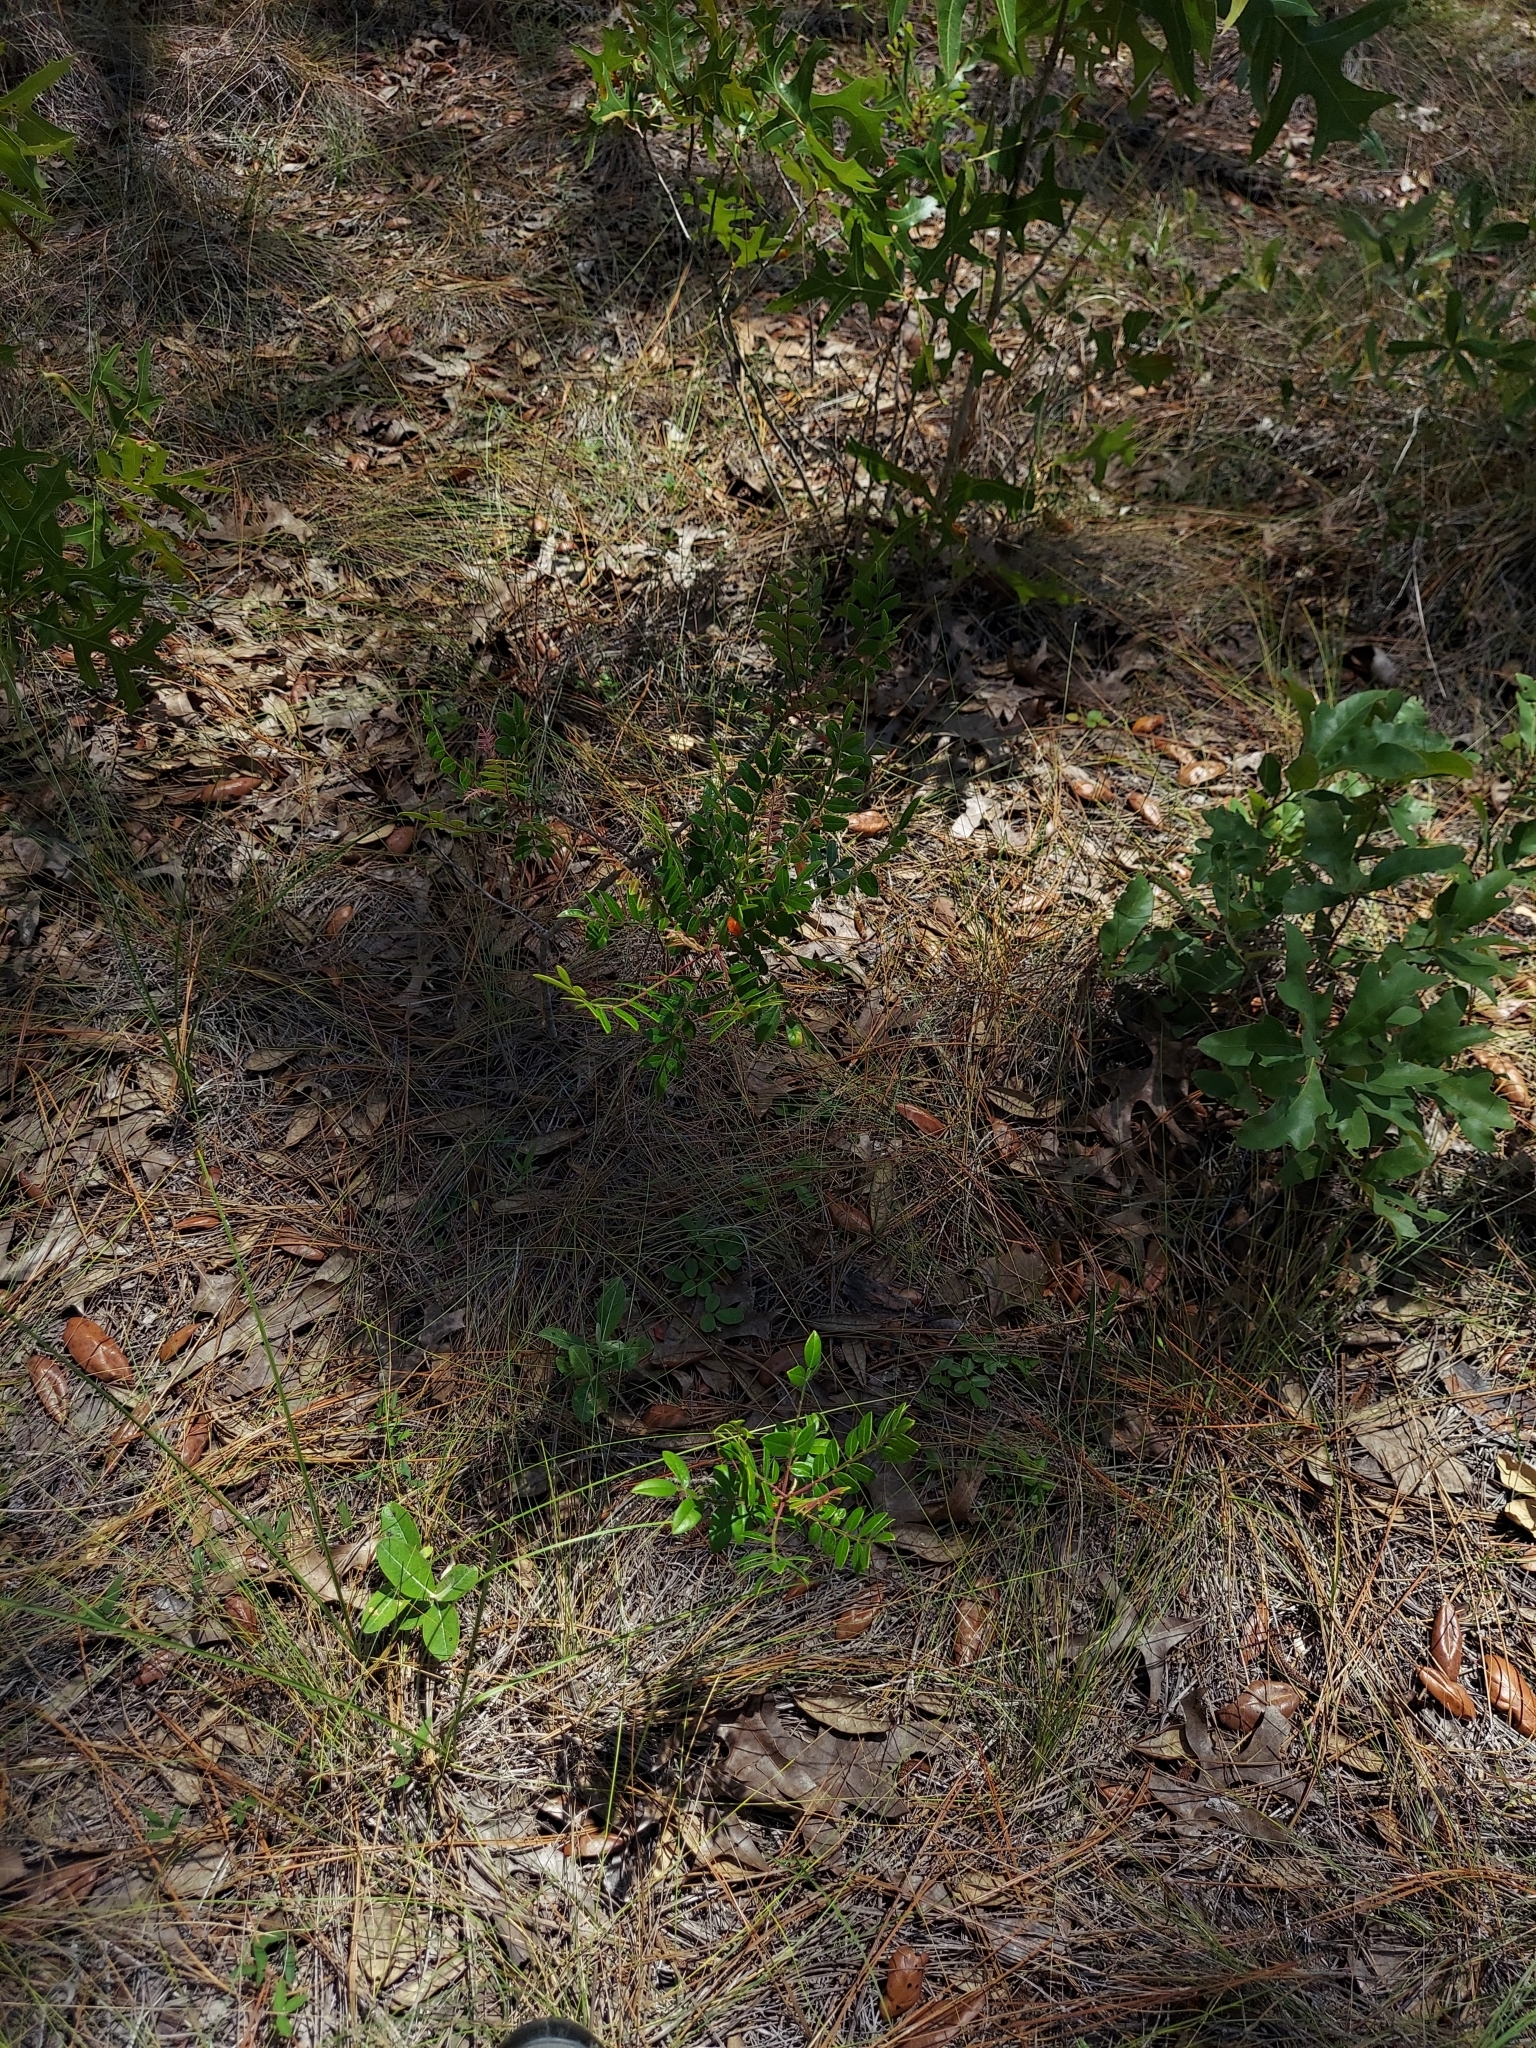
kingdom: Plantae
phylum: Tracheophyta
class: Liliopsida
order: Liliales
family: Melanthiaceae
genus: Schoenocaulon
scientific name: Schoenocaulon dubium
